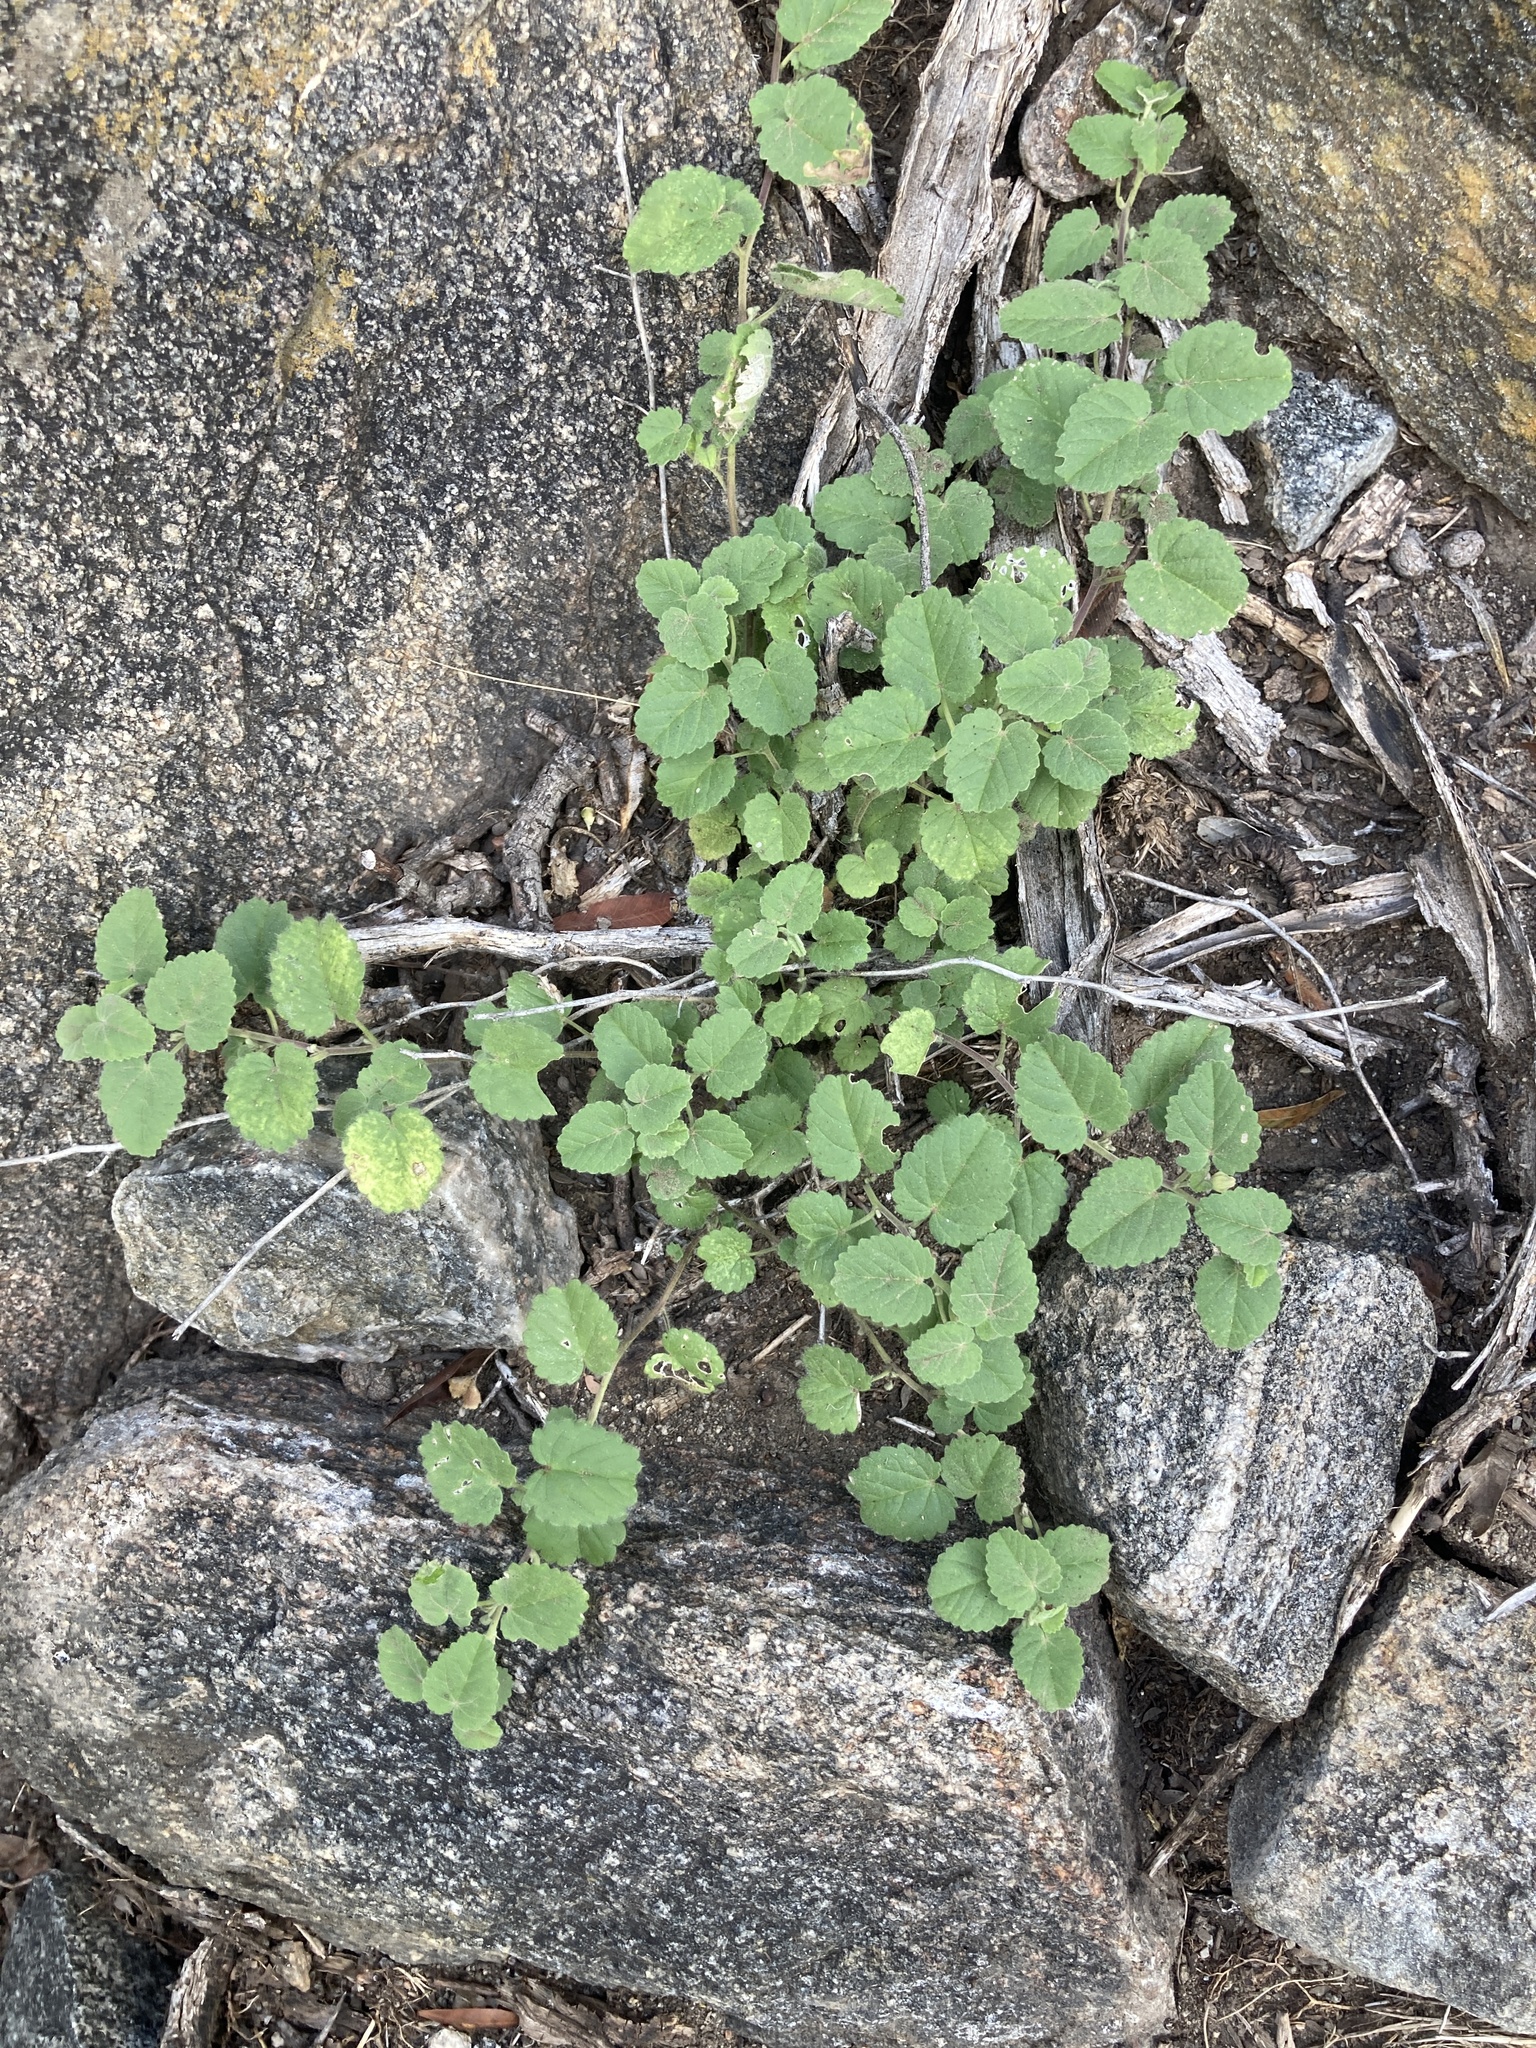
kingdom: Plantae
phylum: Tracheophyta
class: Magnoliopsida
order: Malvales
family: Malvaceae
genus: Sida
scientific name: Sida argentina
